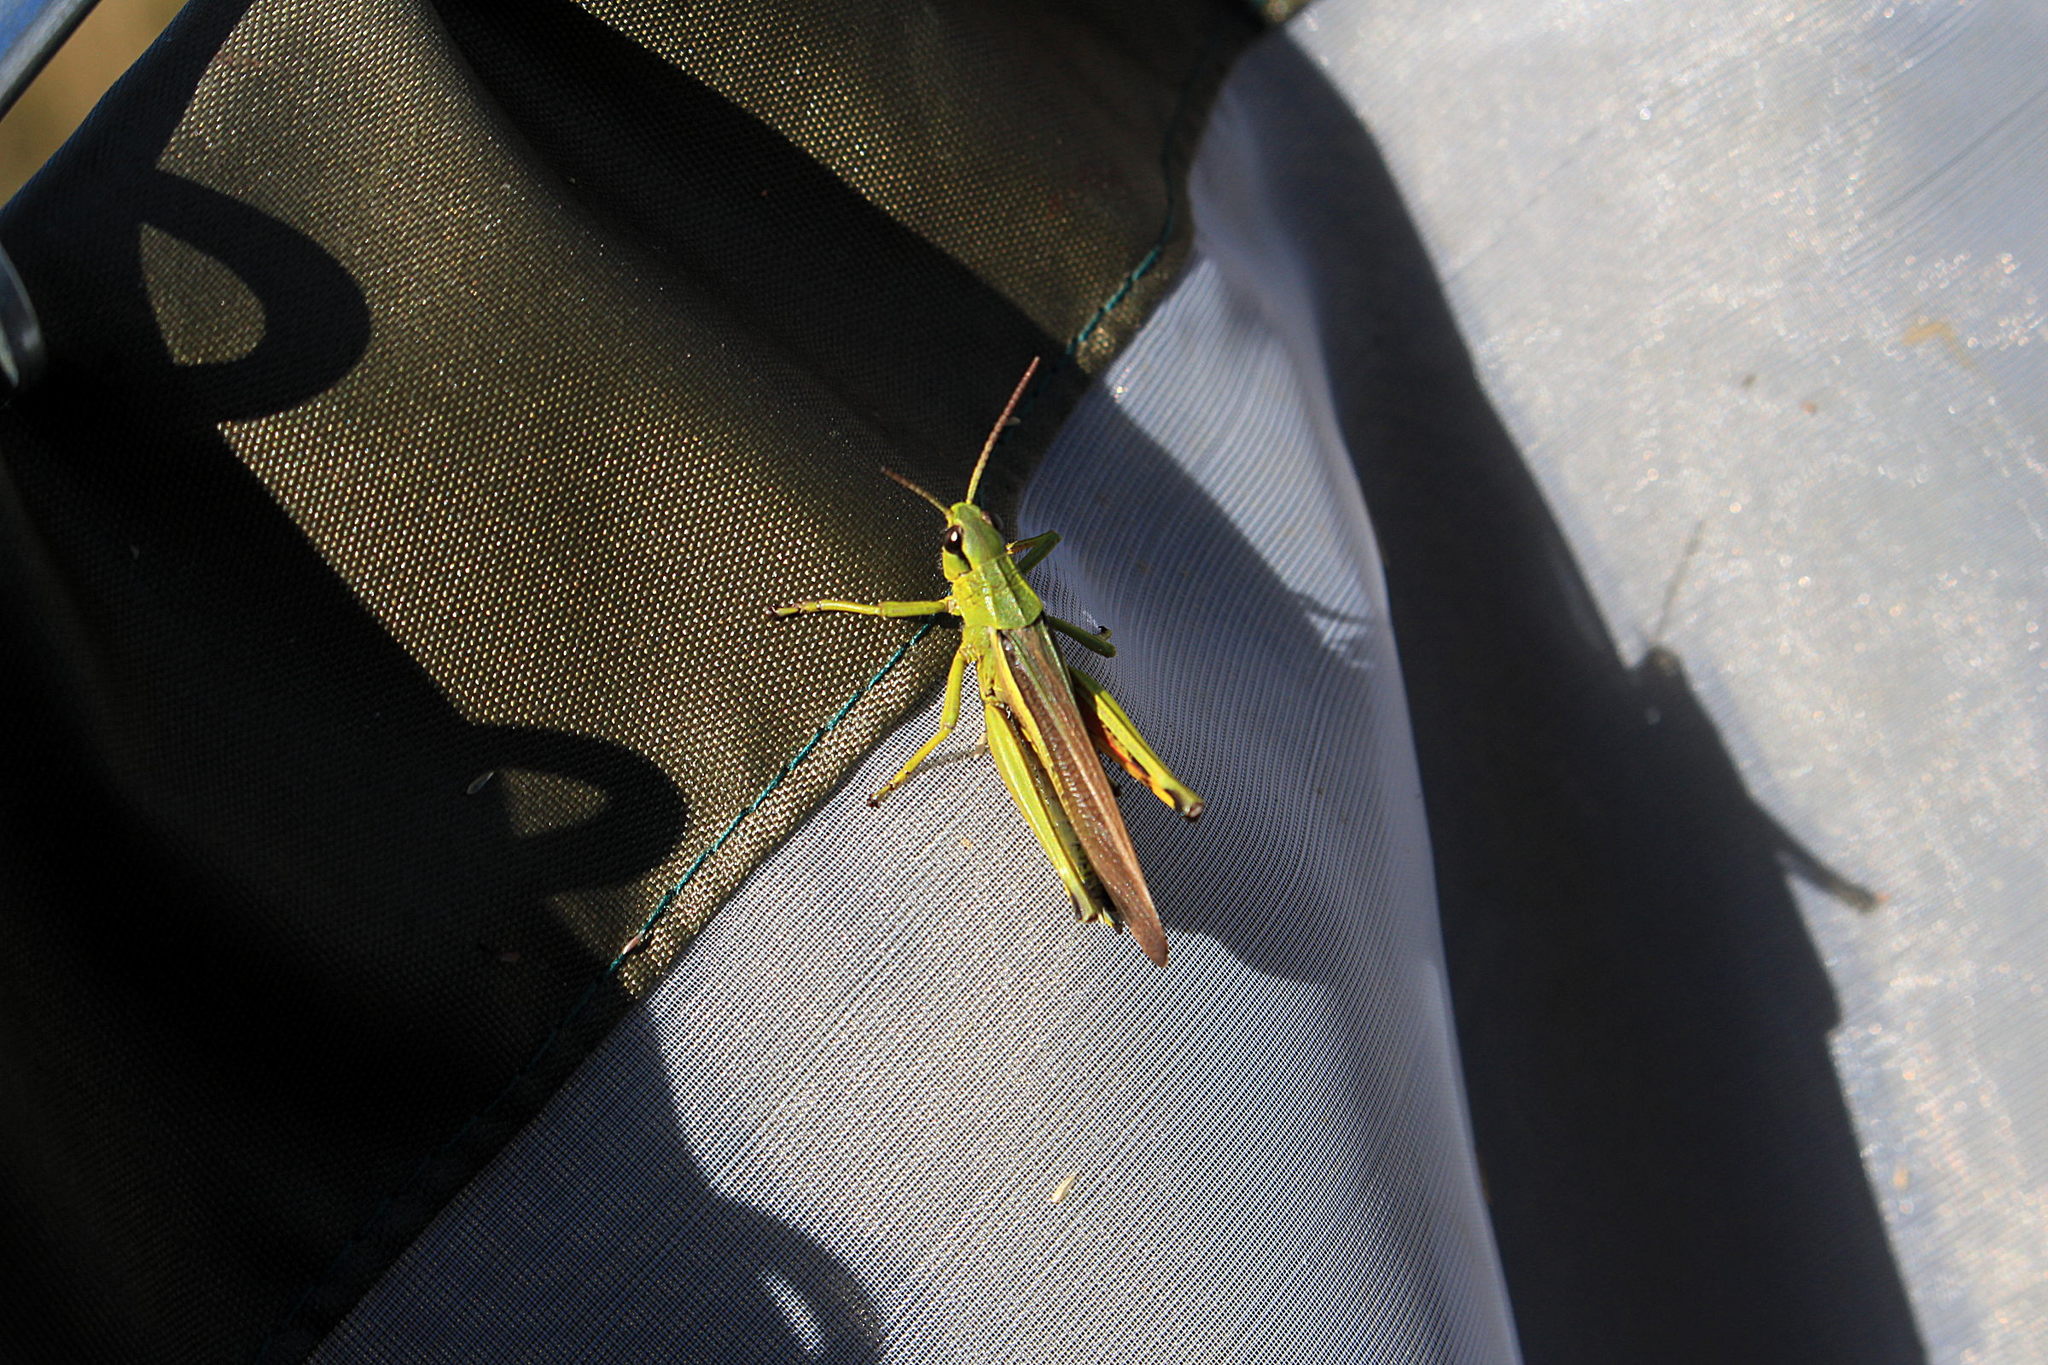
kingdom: Animalia
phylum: Arthropoda
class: Insecta
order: Orthoptera
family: Acrididae
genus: Stethophyma
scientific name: Stethophyma grossum
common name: Large marsh grasshopper
